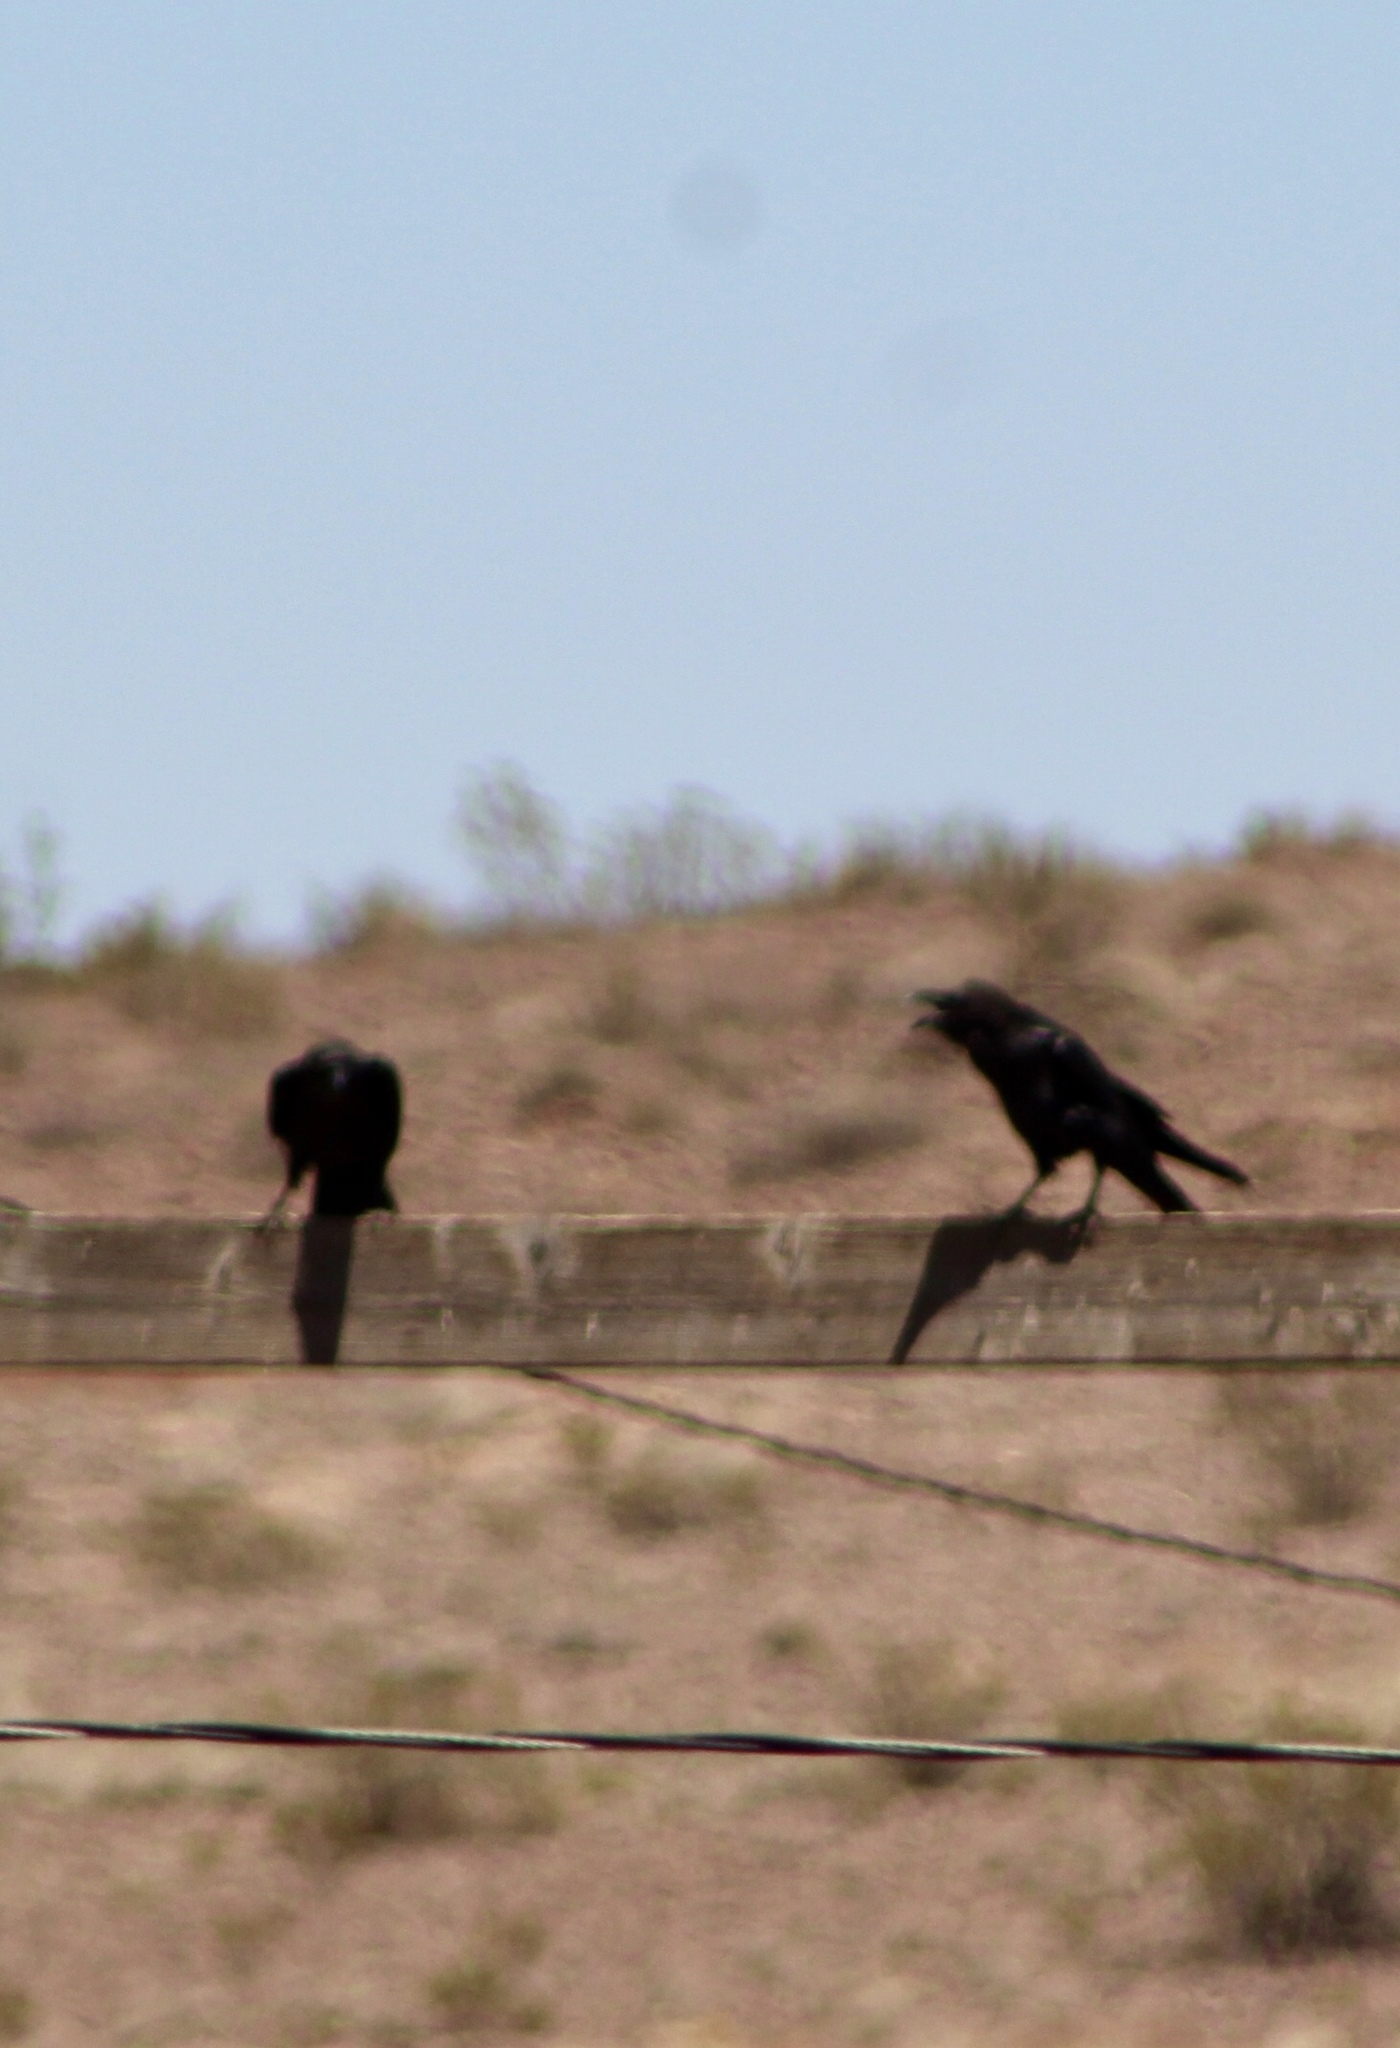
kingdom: Animalia
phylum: Chordata
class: Aves
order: Passeriformes
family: Corvidae
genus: Corvus
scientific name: Corvus cryptoleucus
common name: Chihuahuan raven
